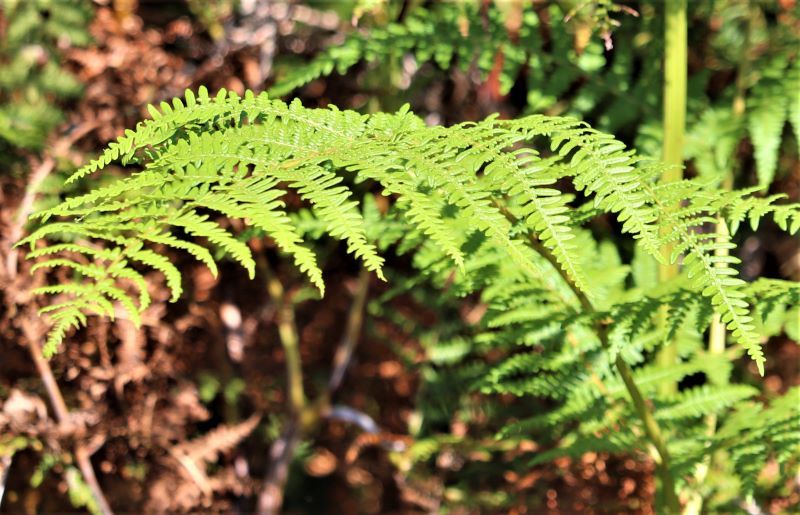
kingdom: Plantae
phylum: Tracheophyta
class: Polypodiopsida
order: Polypodiales
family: Dennstaedtiaceae
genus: Pteridium
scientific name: Pteridium aquilinum
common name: Bracken
